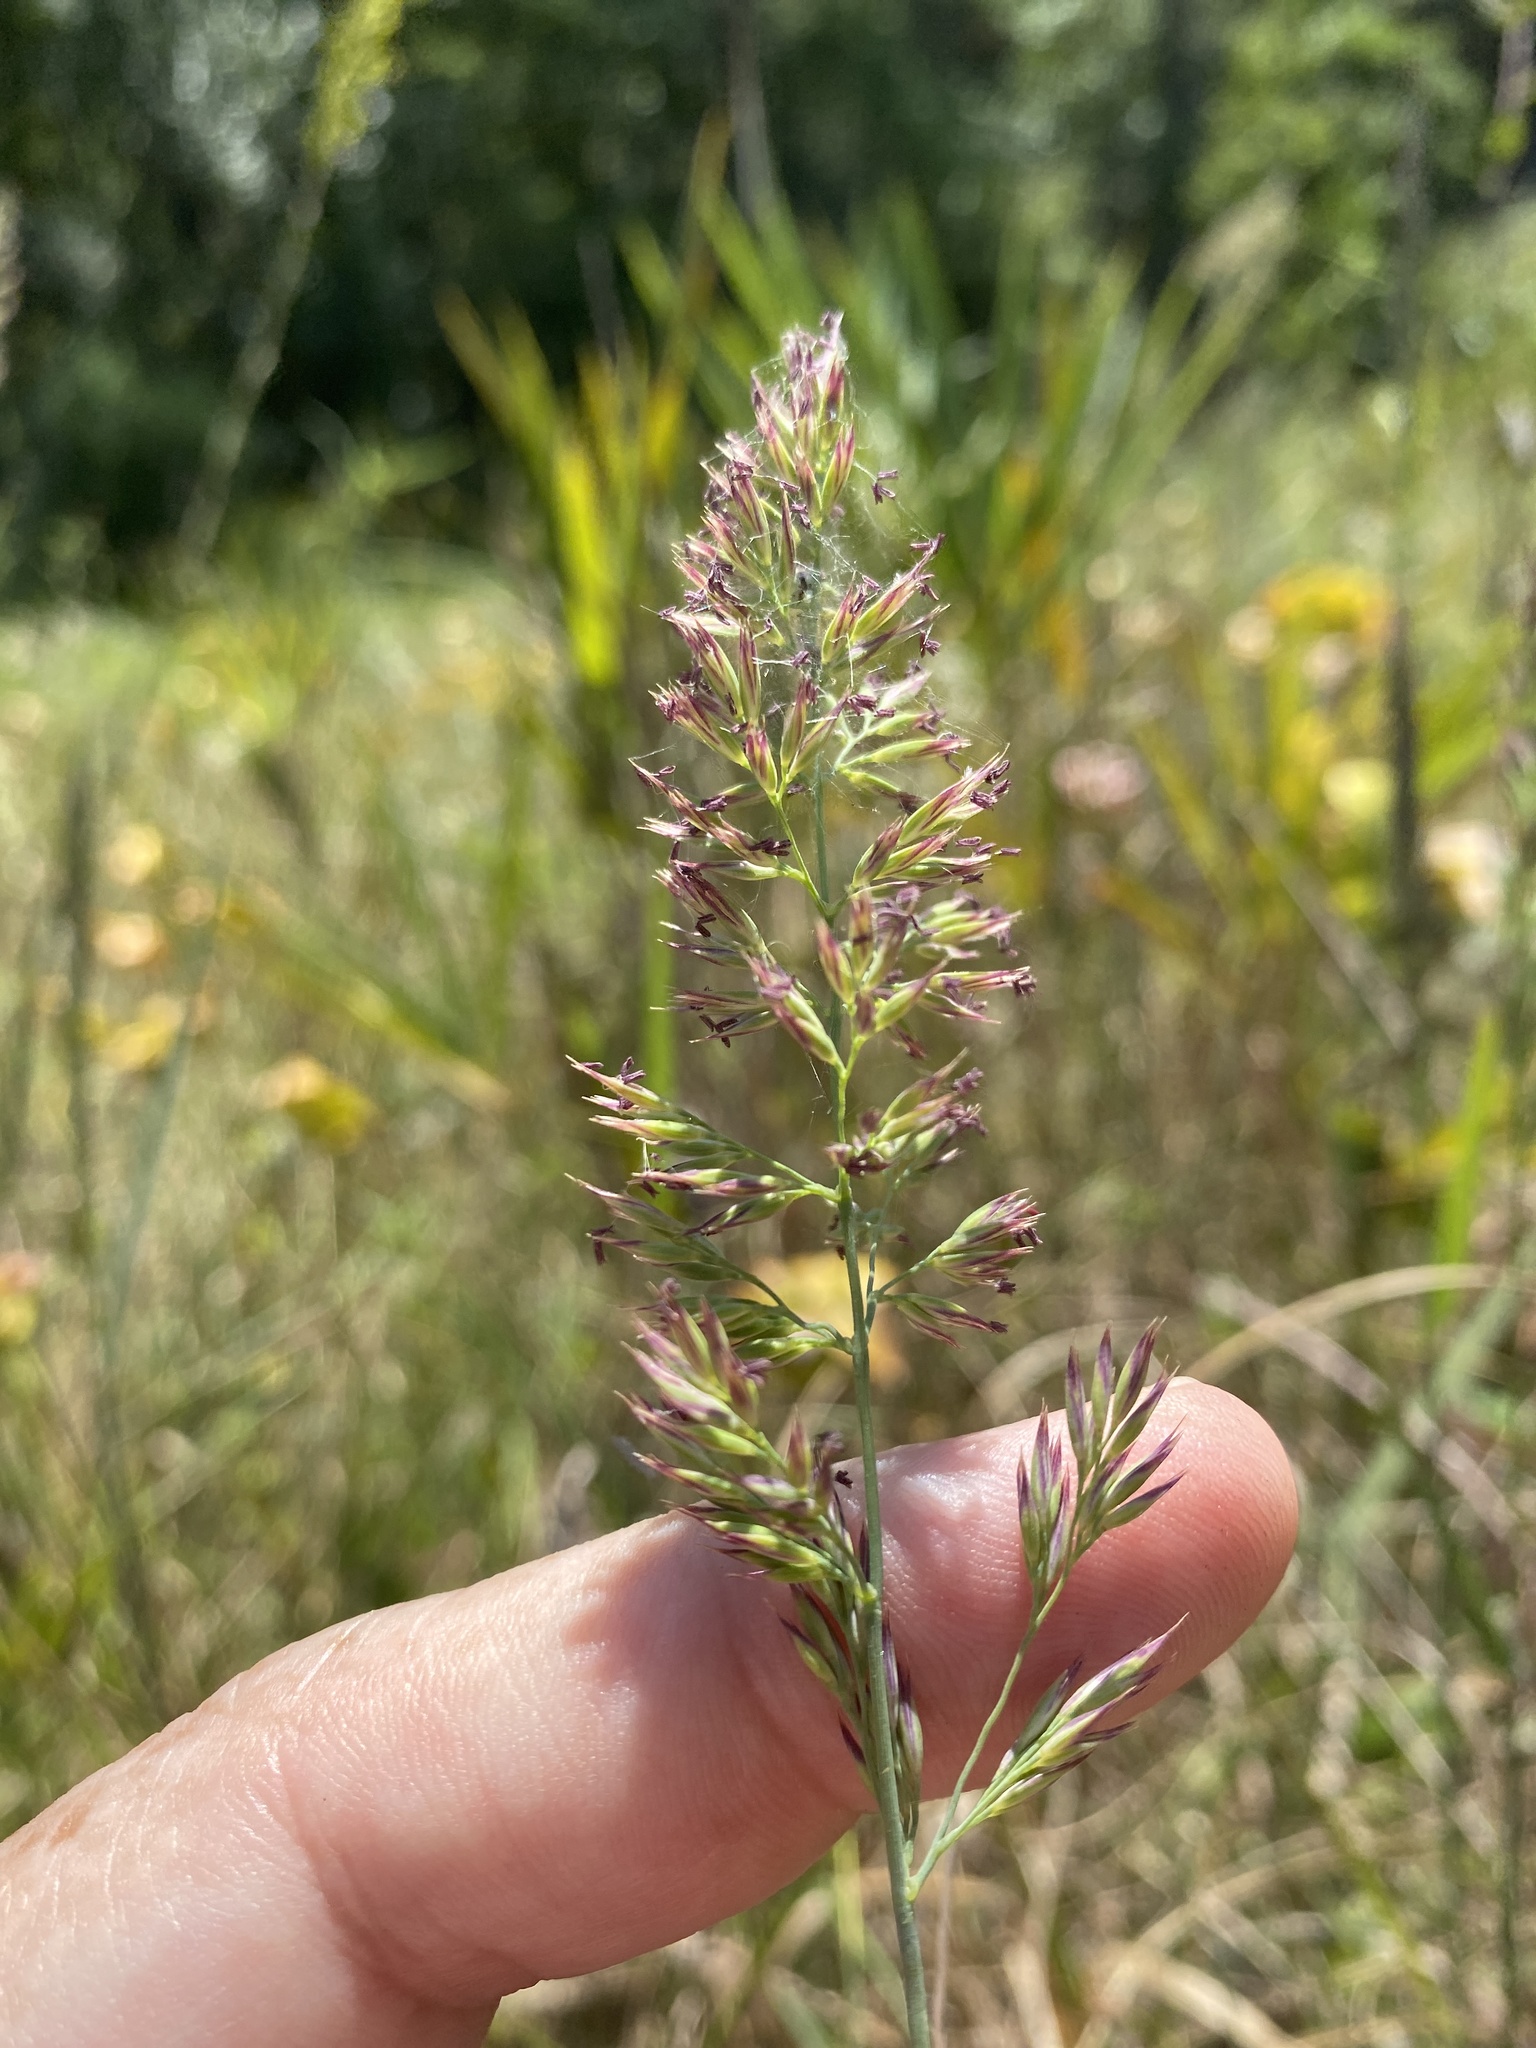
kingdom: Plantae
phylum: Tracheophyta
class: Liliopsida
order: Poales
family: Poaceae
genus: Greeneochloa
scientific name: Greeneochloa coarctata
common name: Small reedgrass
